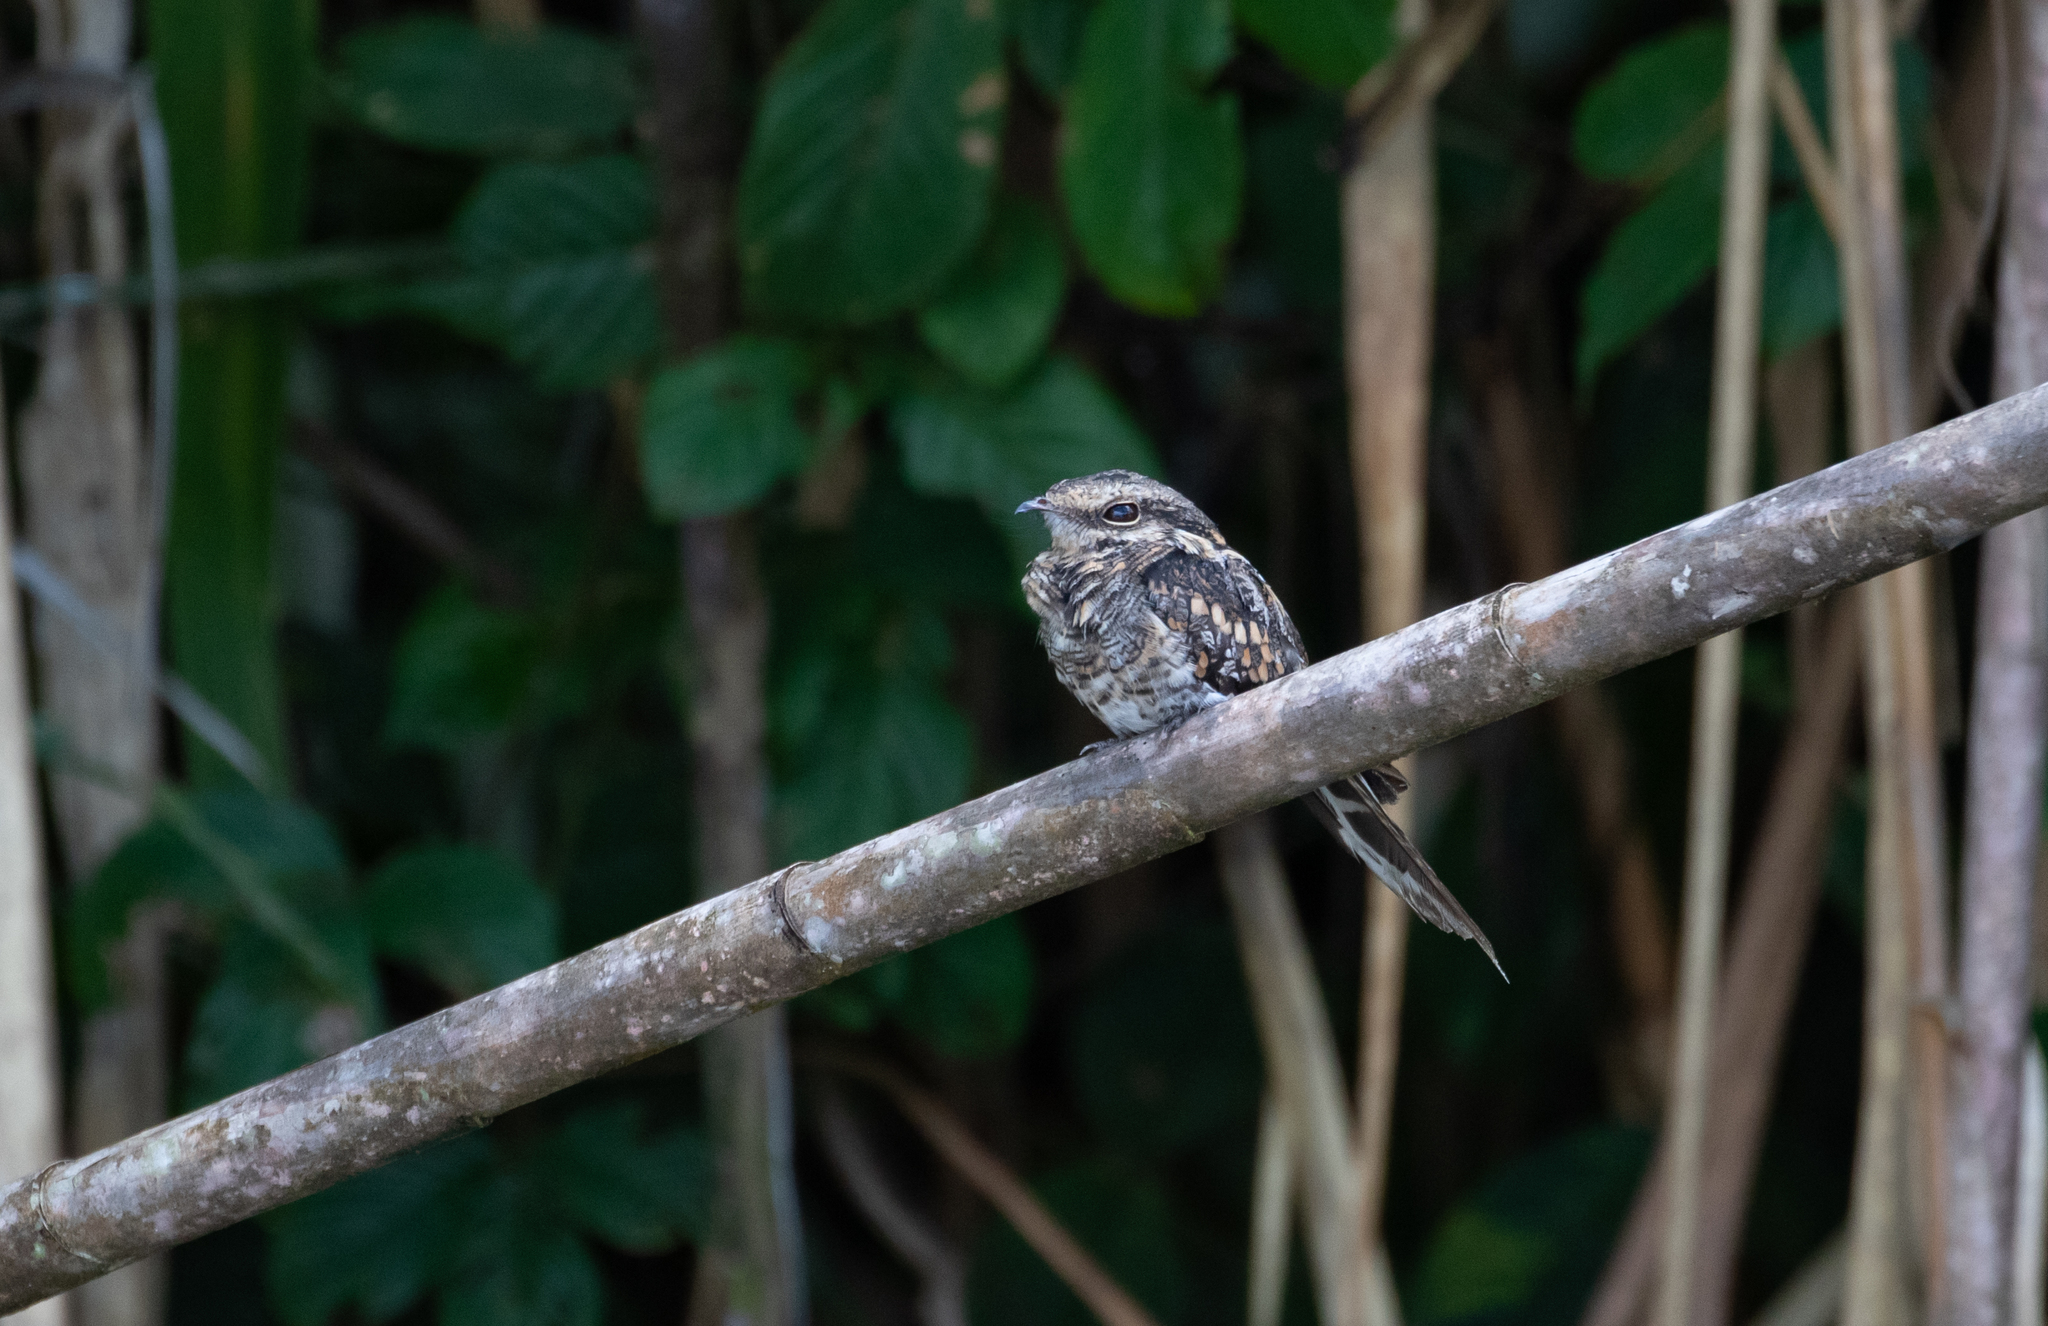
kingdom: Animalia
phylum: Chordata
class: Aves
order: Caprimulgiformes
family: Caprimulgidae
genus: Hydropsalis
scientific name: Hydropsalis climacocerca
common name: Ladder-tailed nightjar
